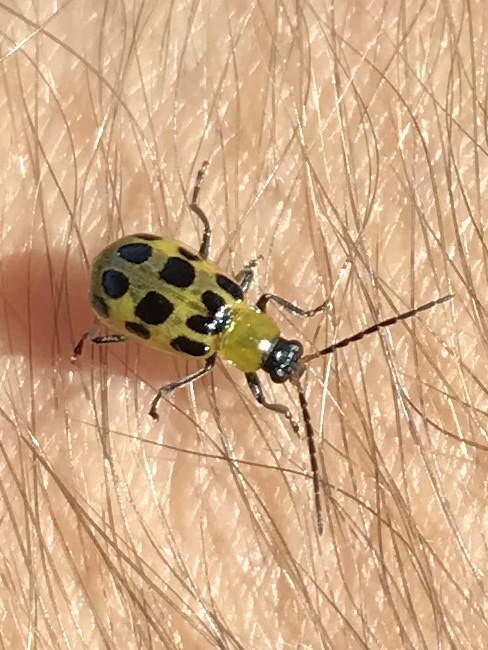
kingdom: Animalia
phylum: Arthropoda
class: Insecta
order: Coleoptera
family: Chrysomelidae
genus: Diabrotica
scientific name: Diabrotica undecimpunctata
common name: Spotted cucumber beetle
